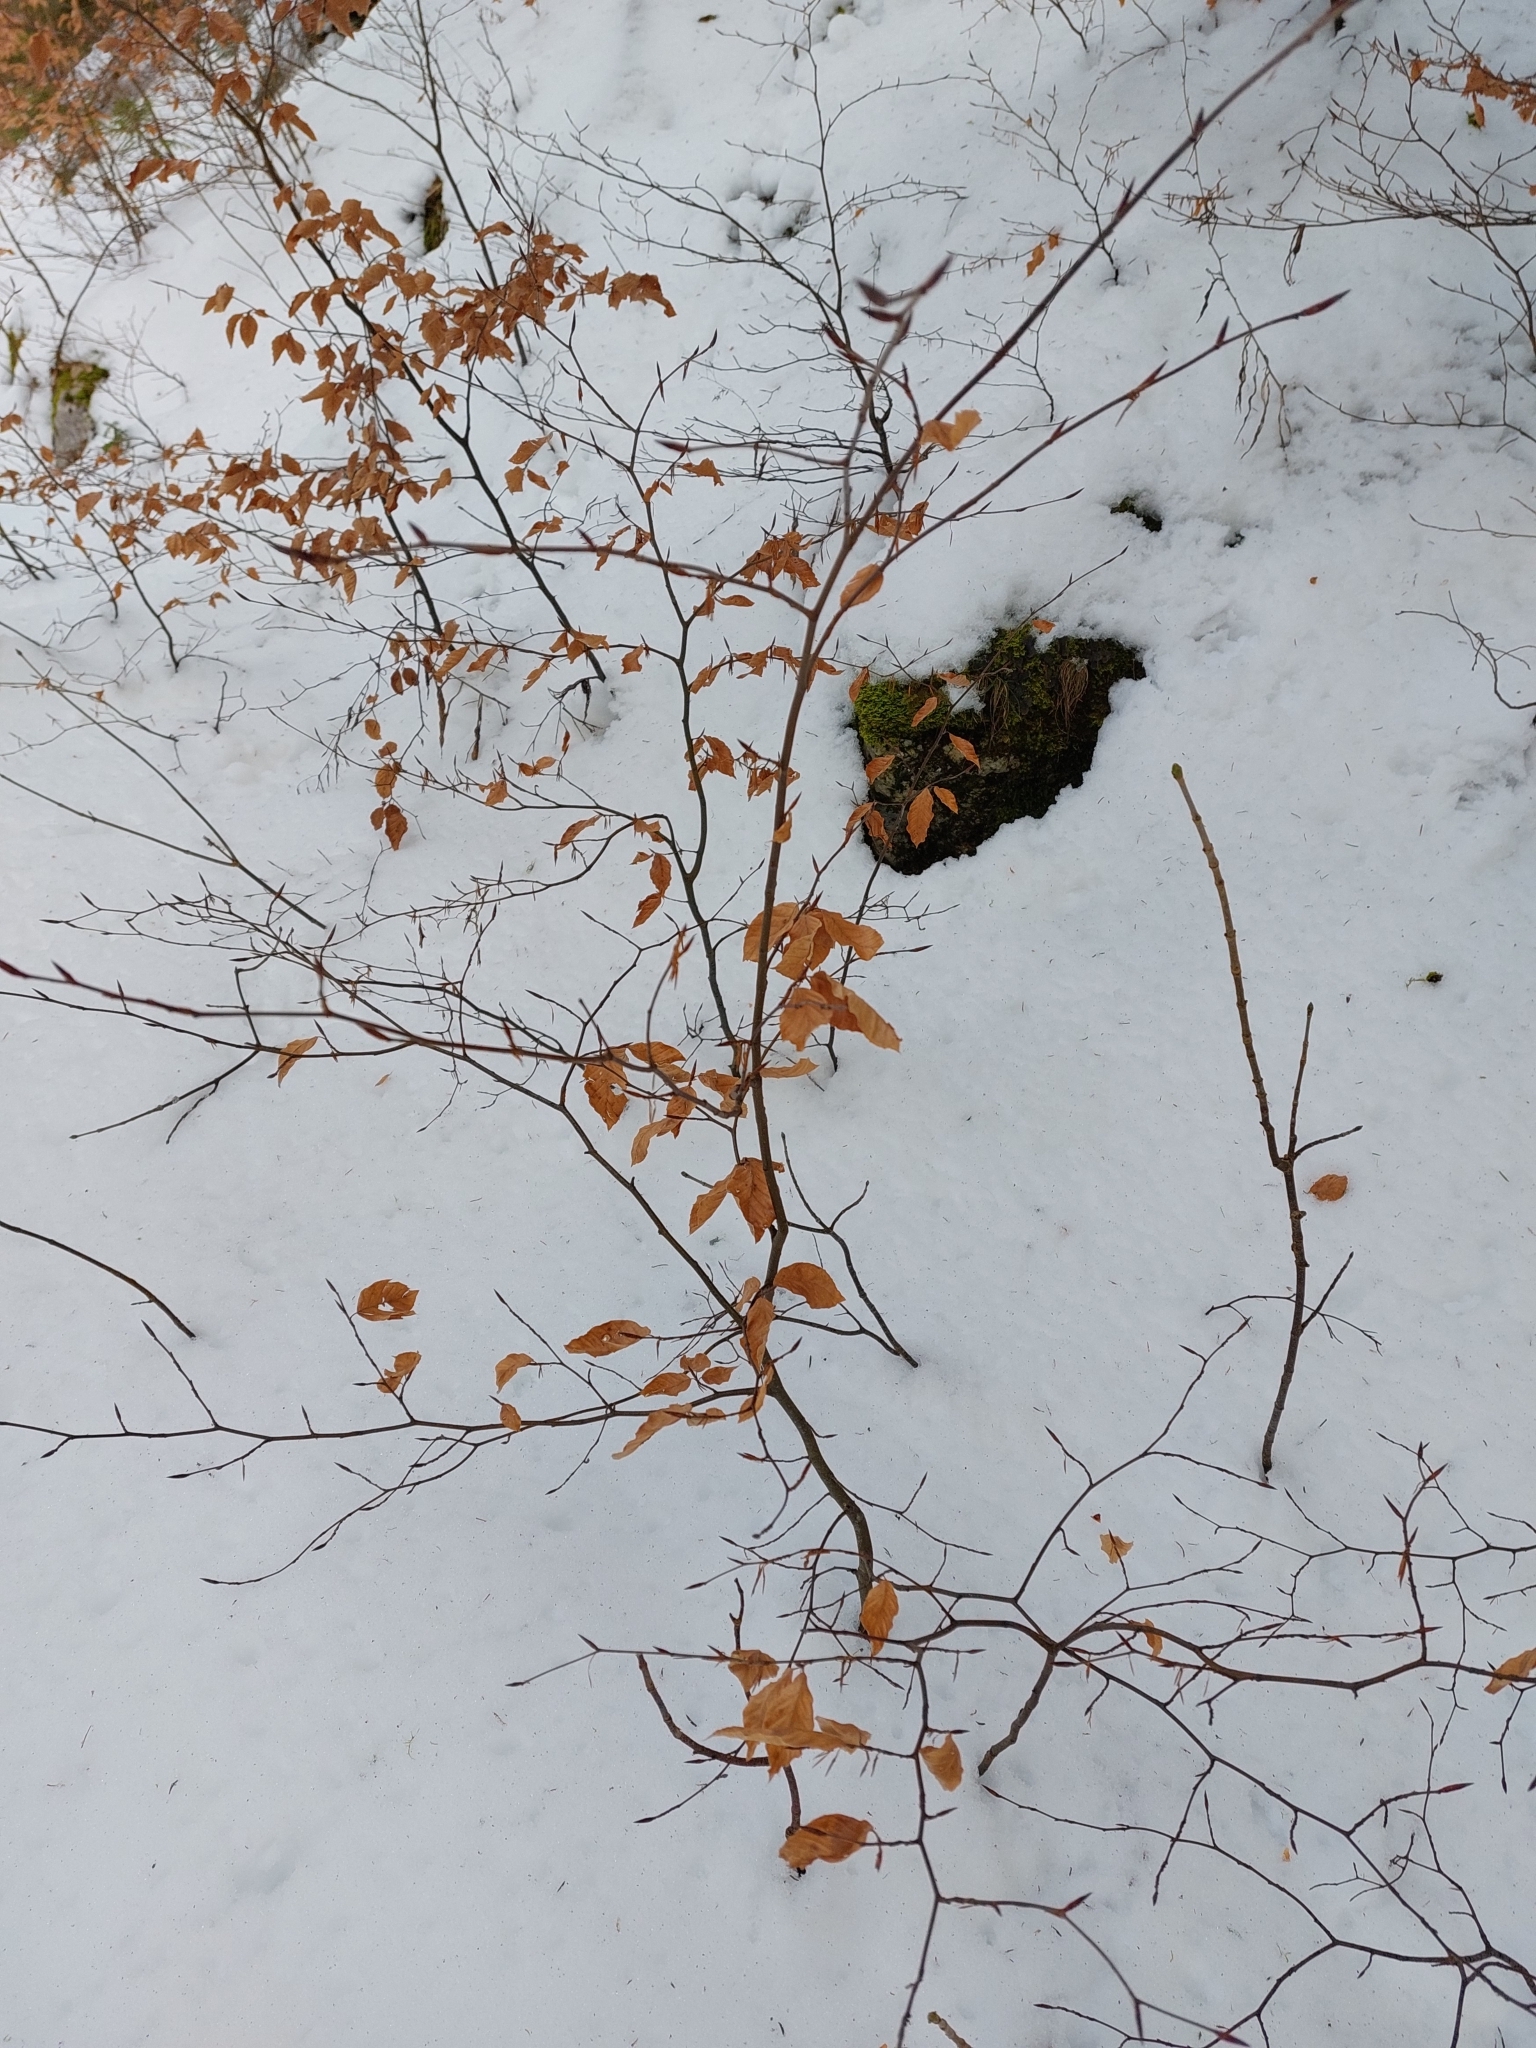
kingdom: Plantae
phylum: Tracheophyta
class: Magnoliopsida
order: Fagales
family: Fagaceae
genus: Fagus
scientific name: Fagus sylvatica
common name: Beech
